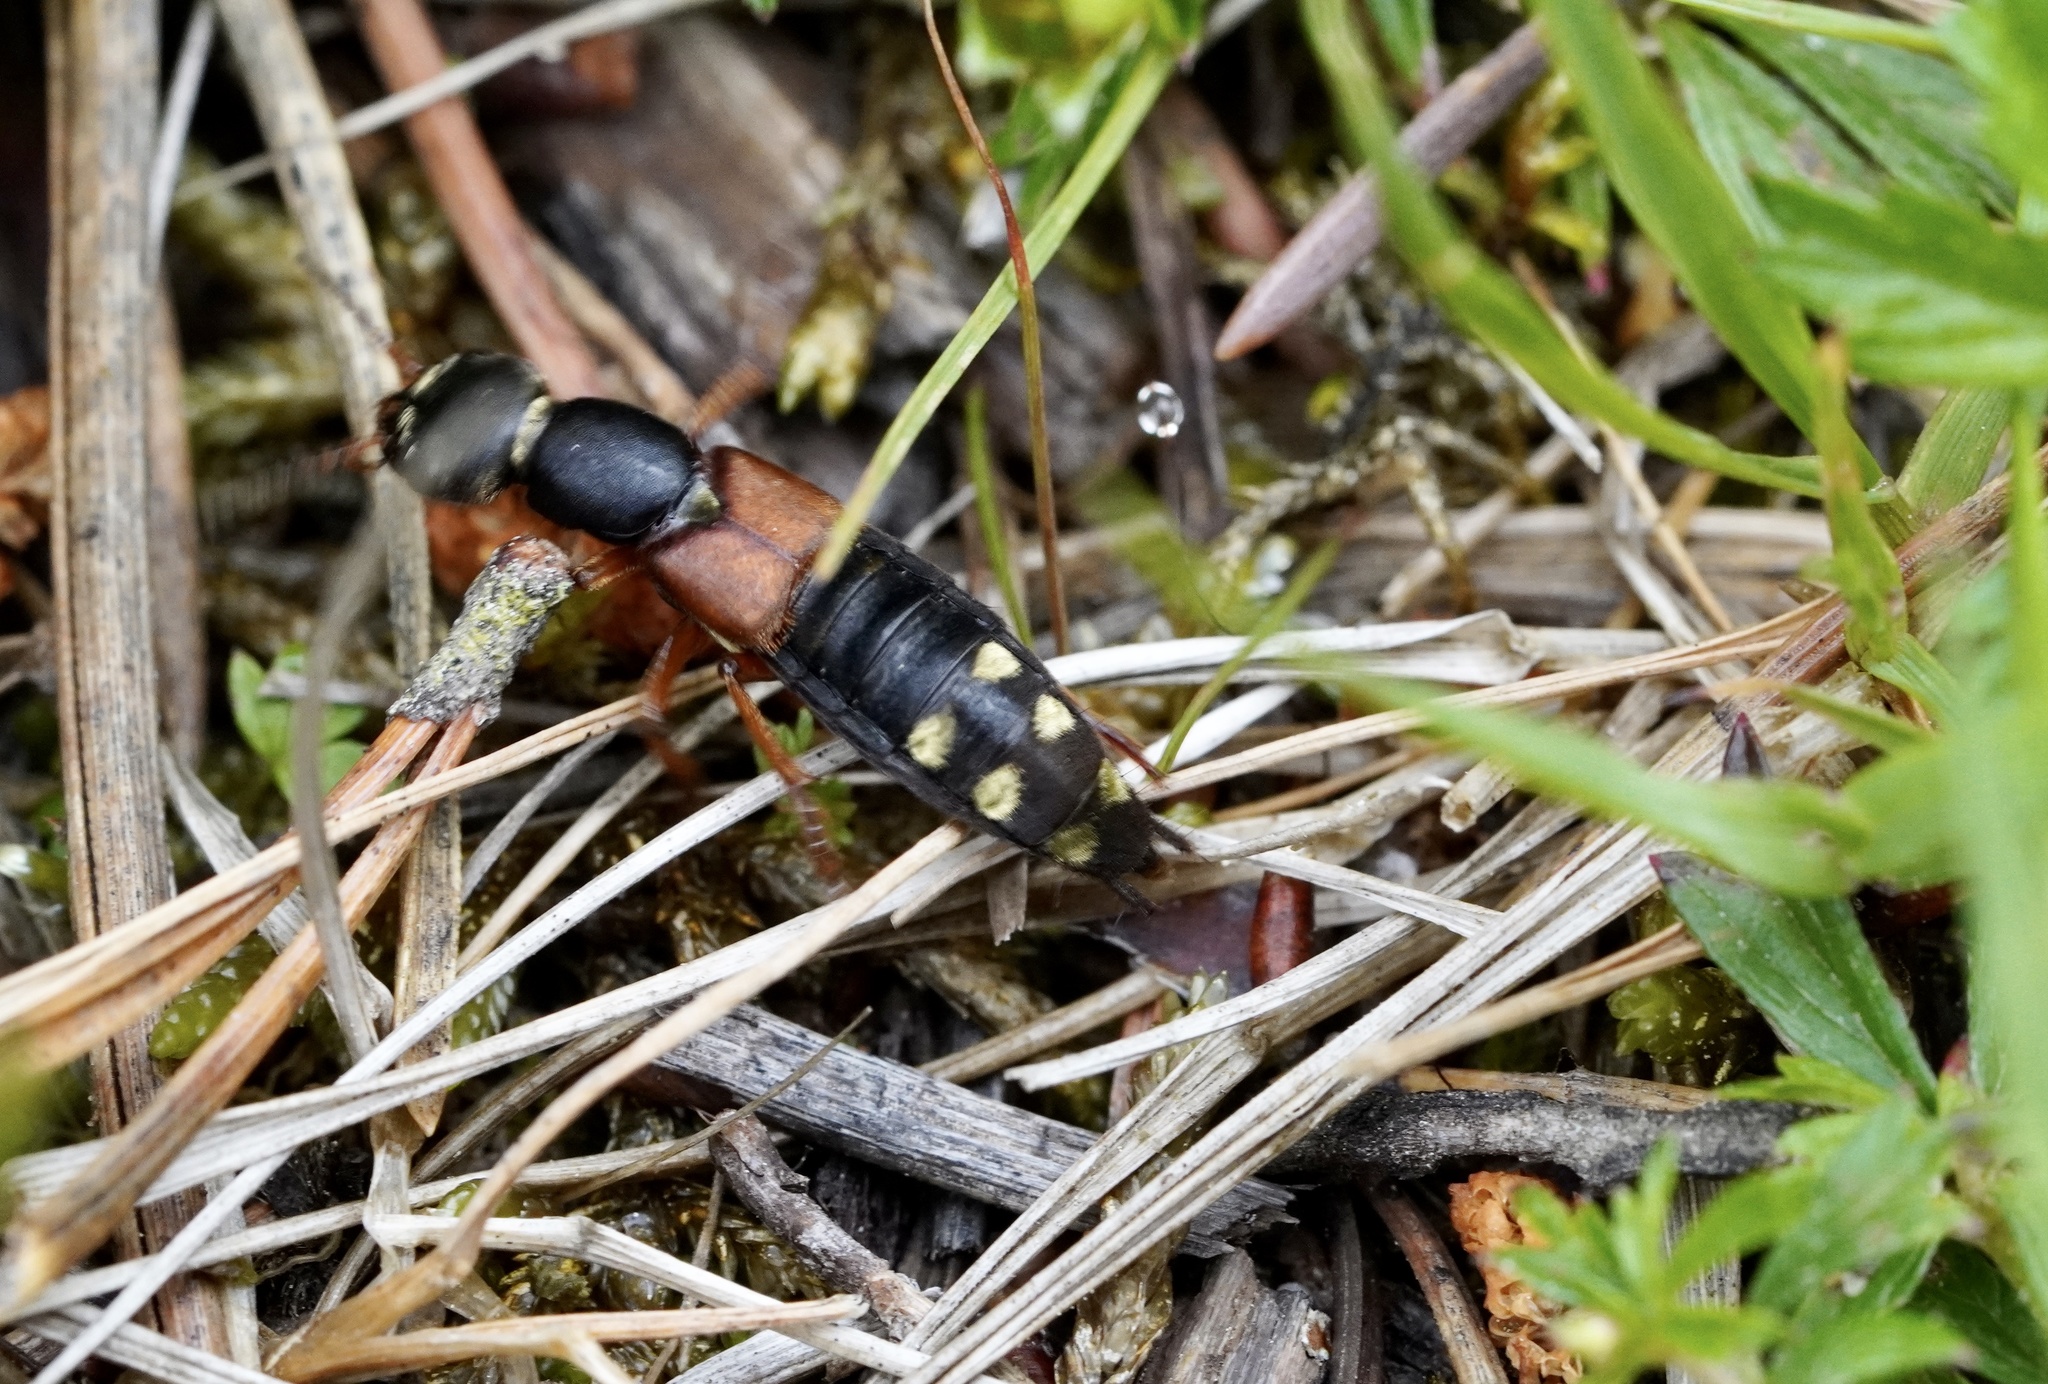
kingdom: Animalia
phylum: Arthropoda
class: Insecta
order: Coleoptera
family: Staphylinidae
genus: Staphylinus
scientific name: Staphylinus erythropterus
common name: Staph beetle
